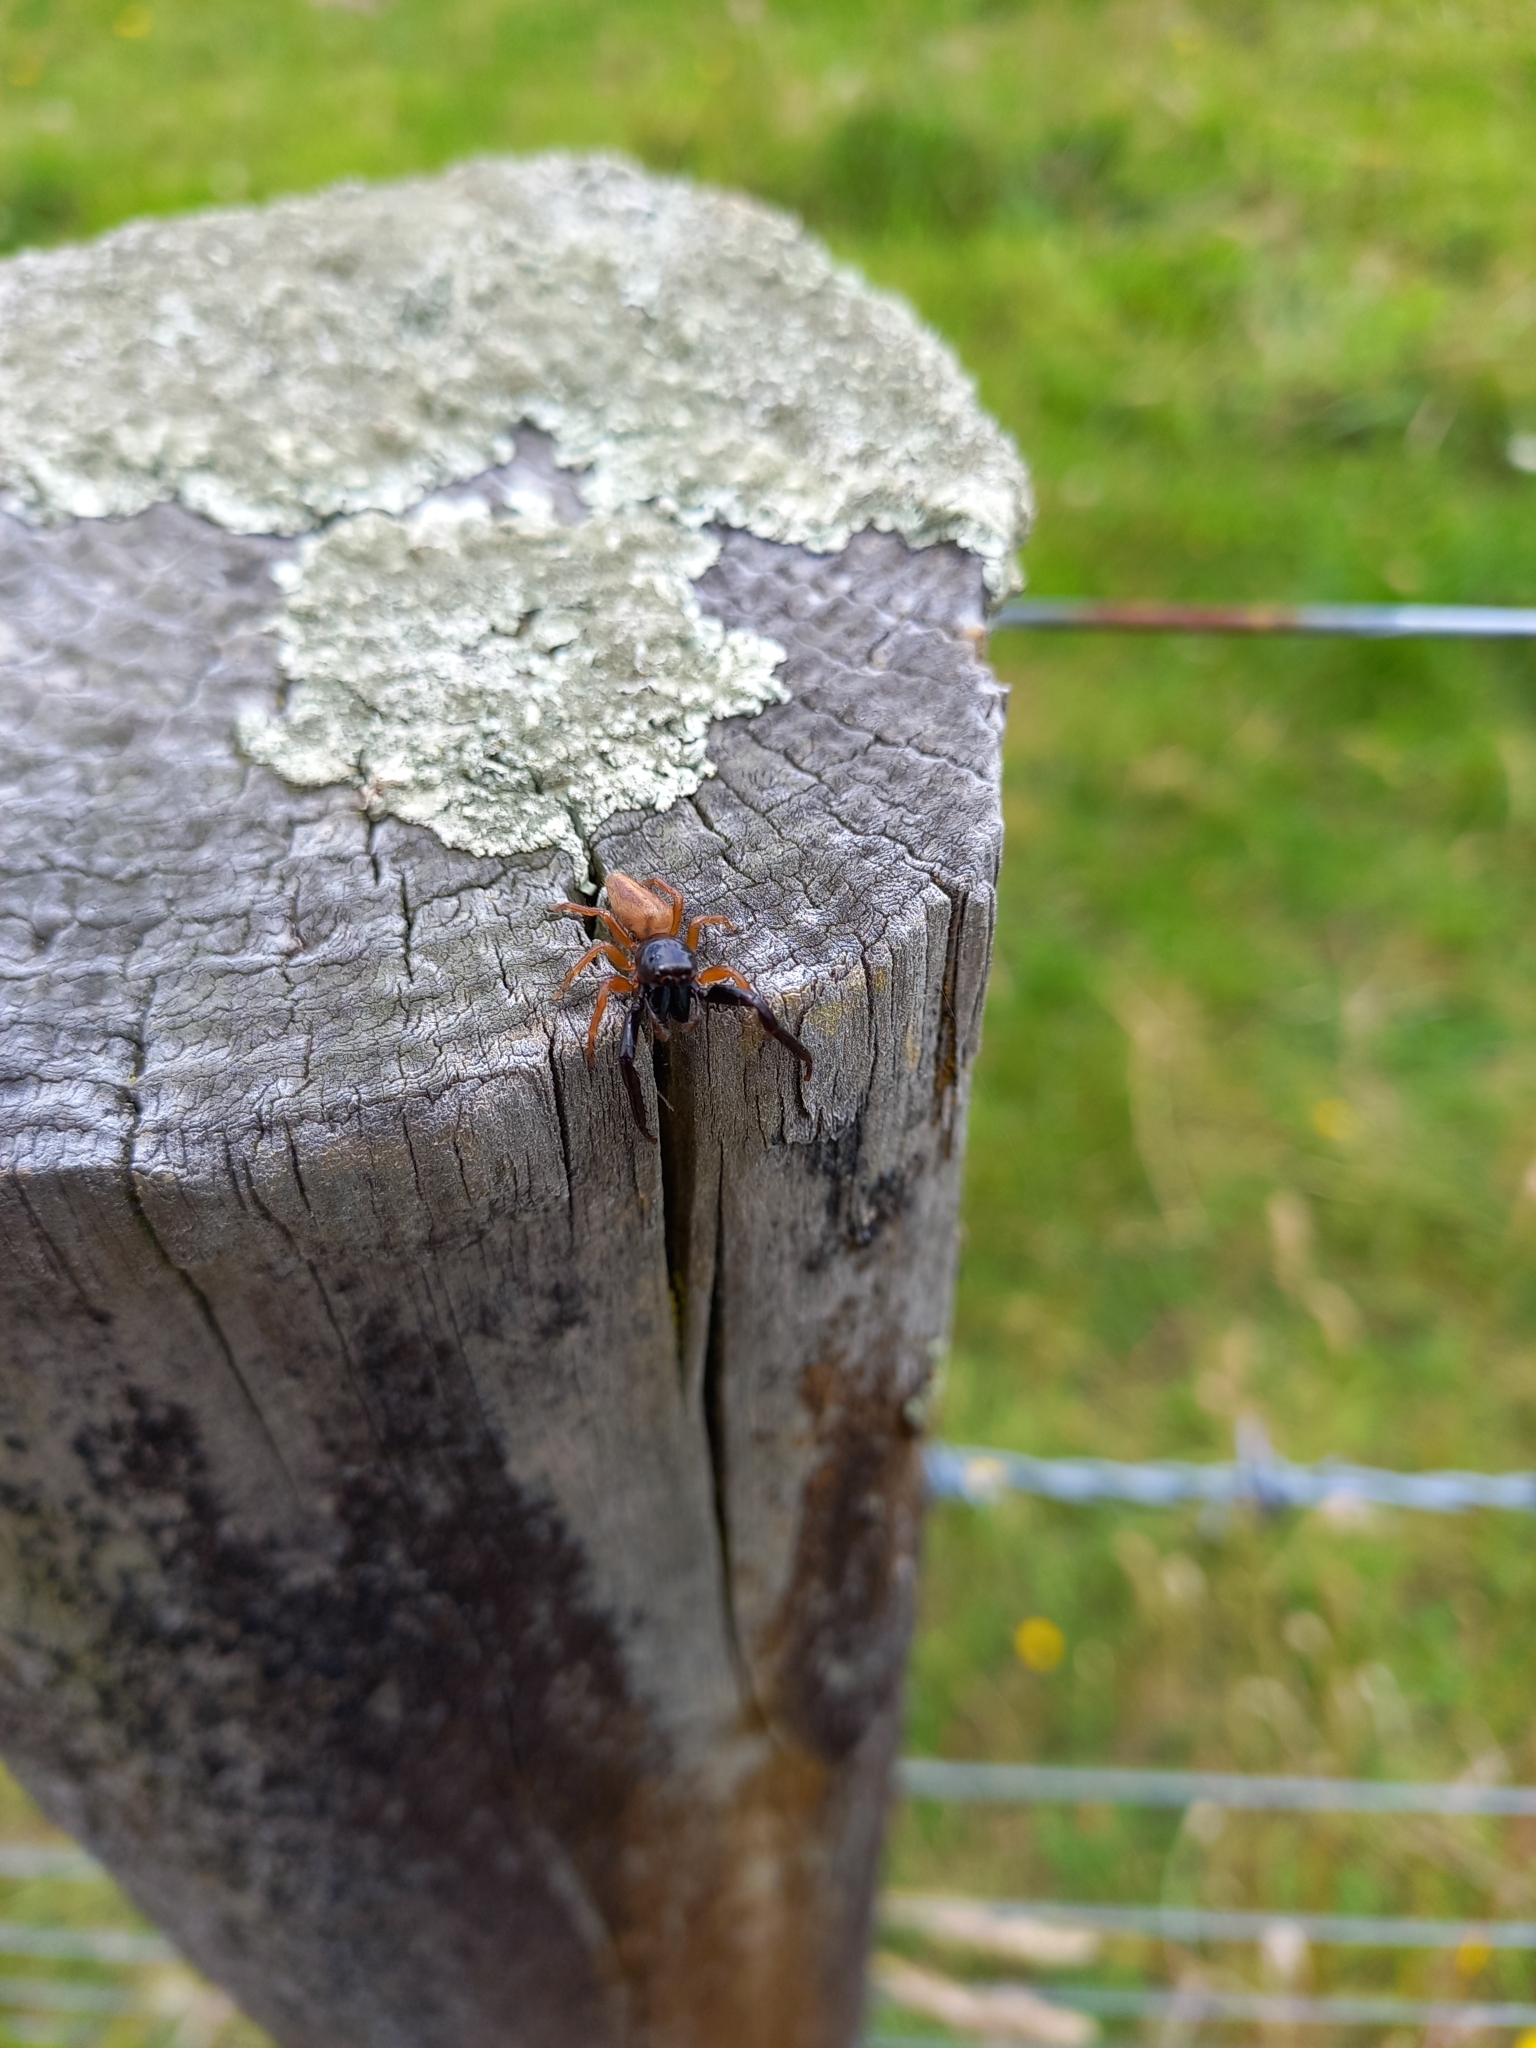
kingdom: Animalia
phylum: Arthropoda
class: Arachnida
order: Araneae
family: Salticidae
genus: Trite
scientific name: Trite planiceps
